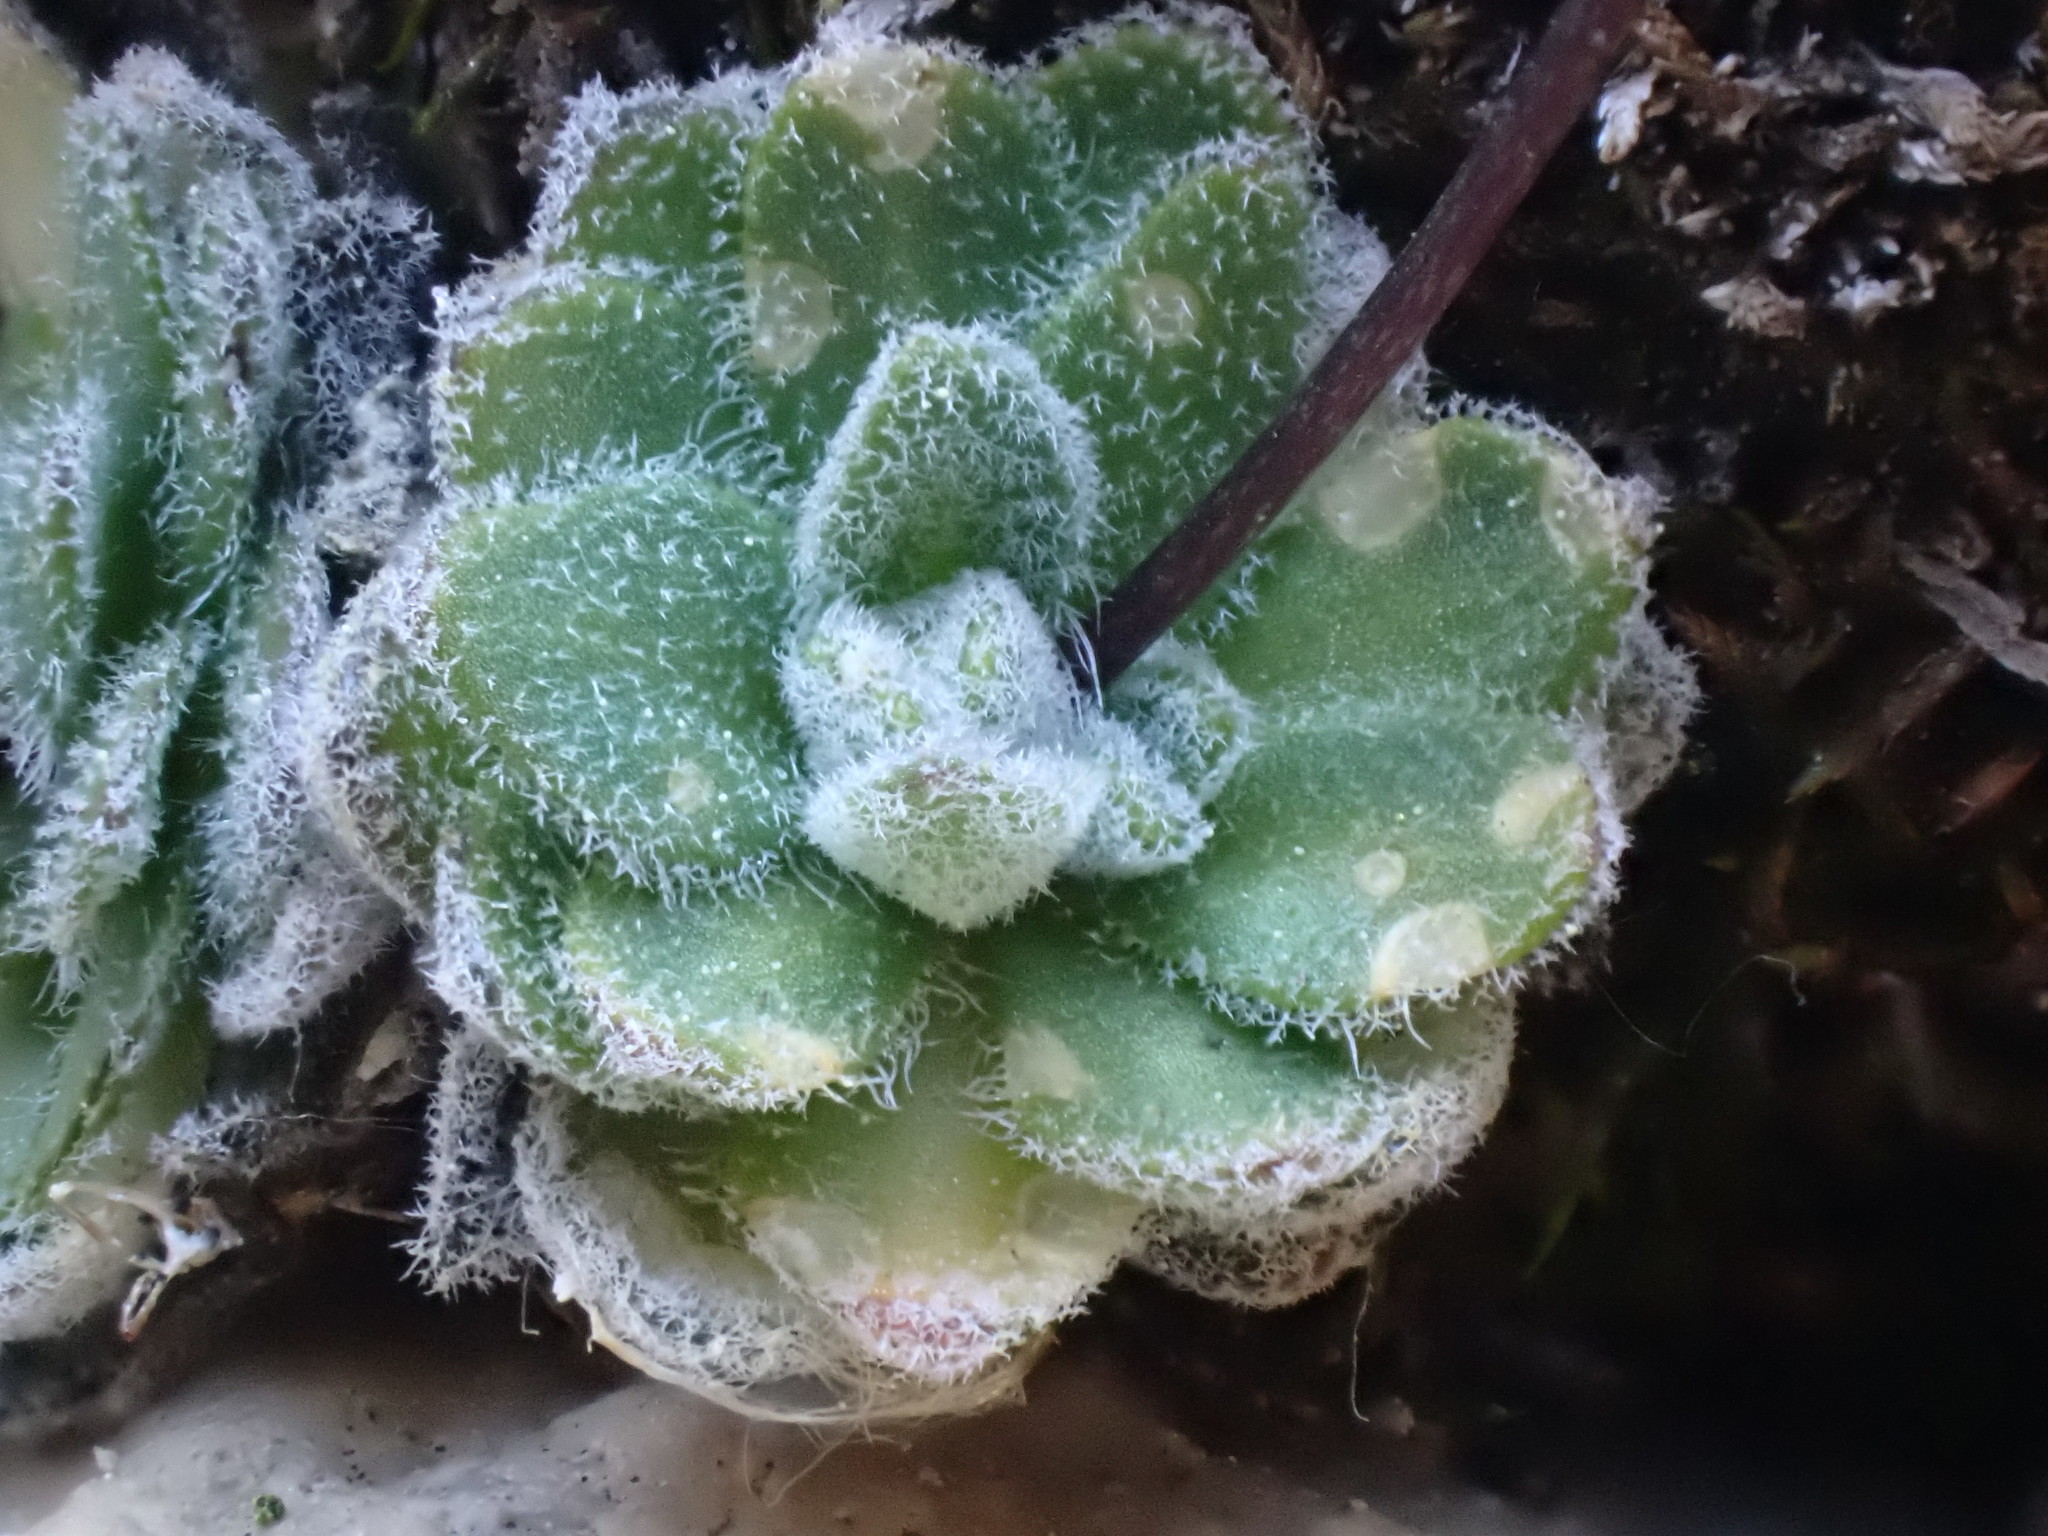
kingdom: Plantae
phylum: Tracheophyta
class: Magnoliopsida
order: Brassicales
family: Brassicaceae
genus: Draba
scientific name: Draba lonchocarpa
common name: Lance-fruit draba
